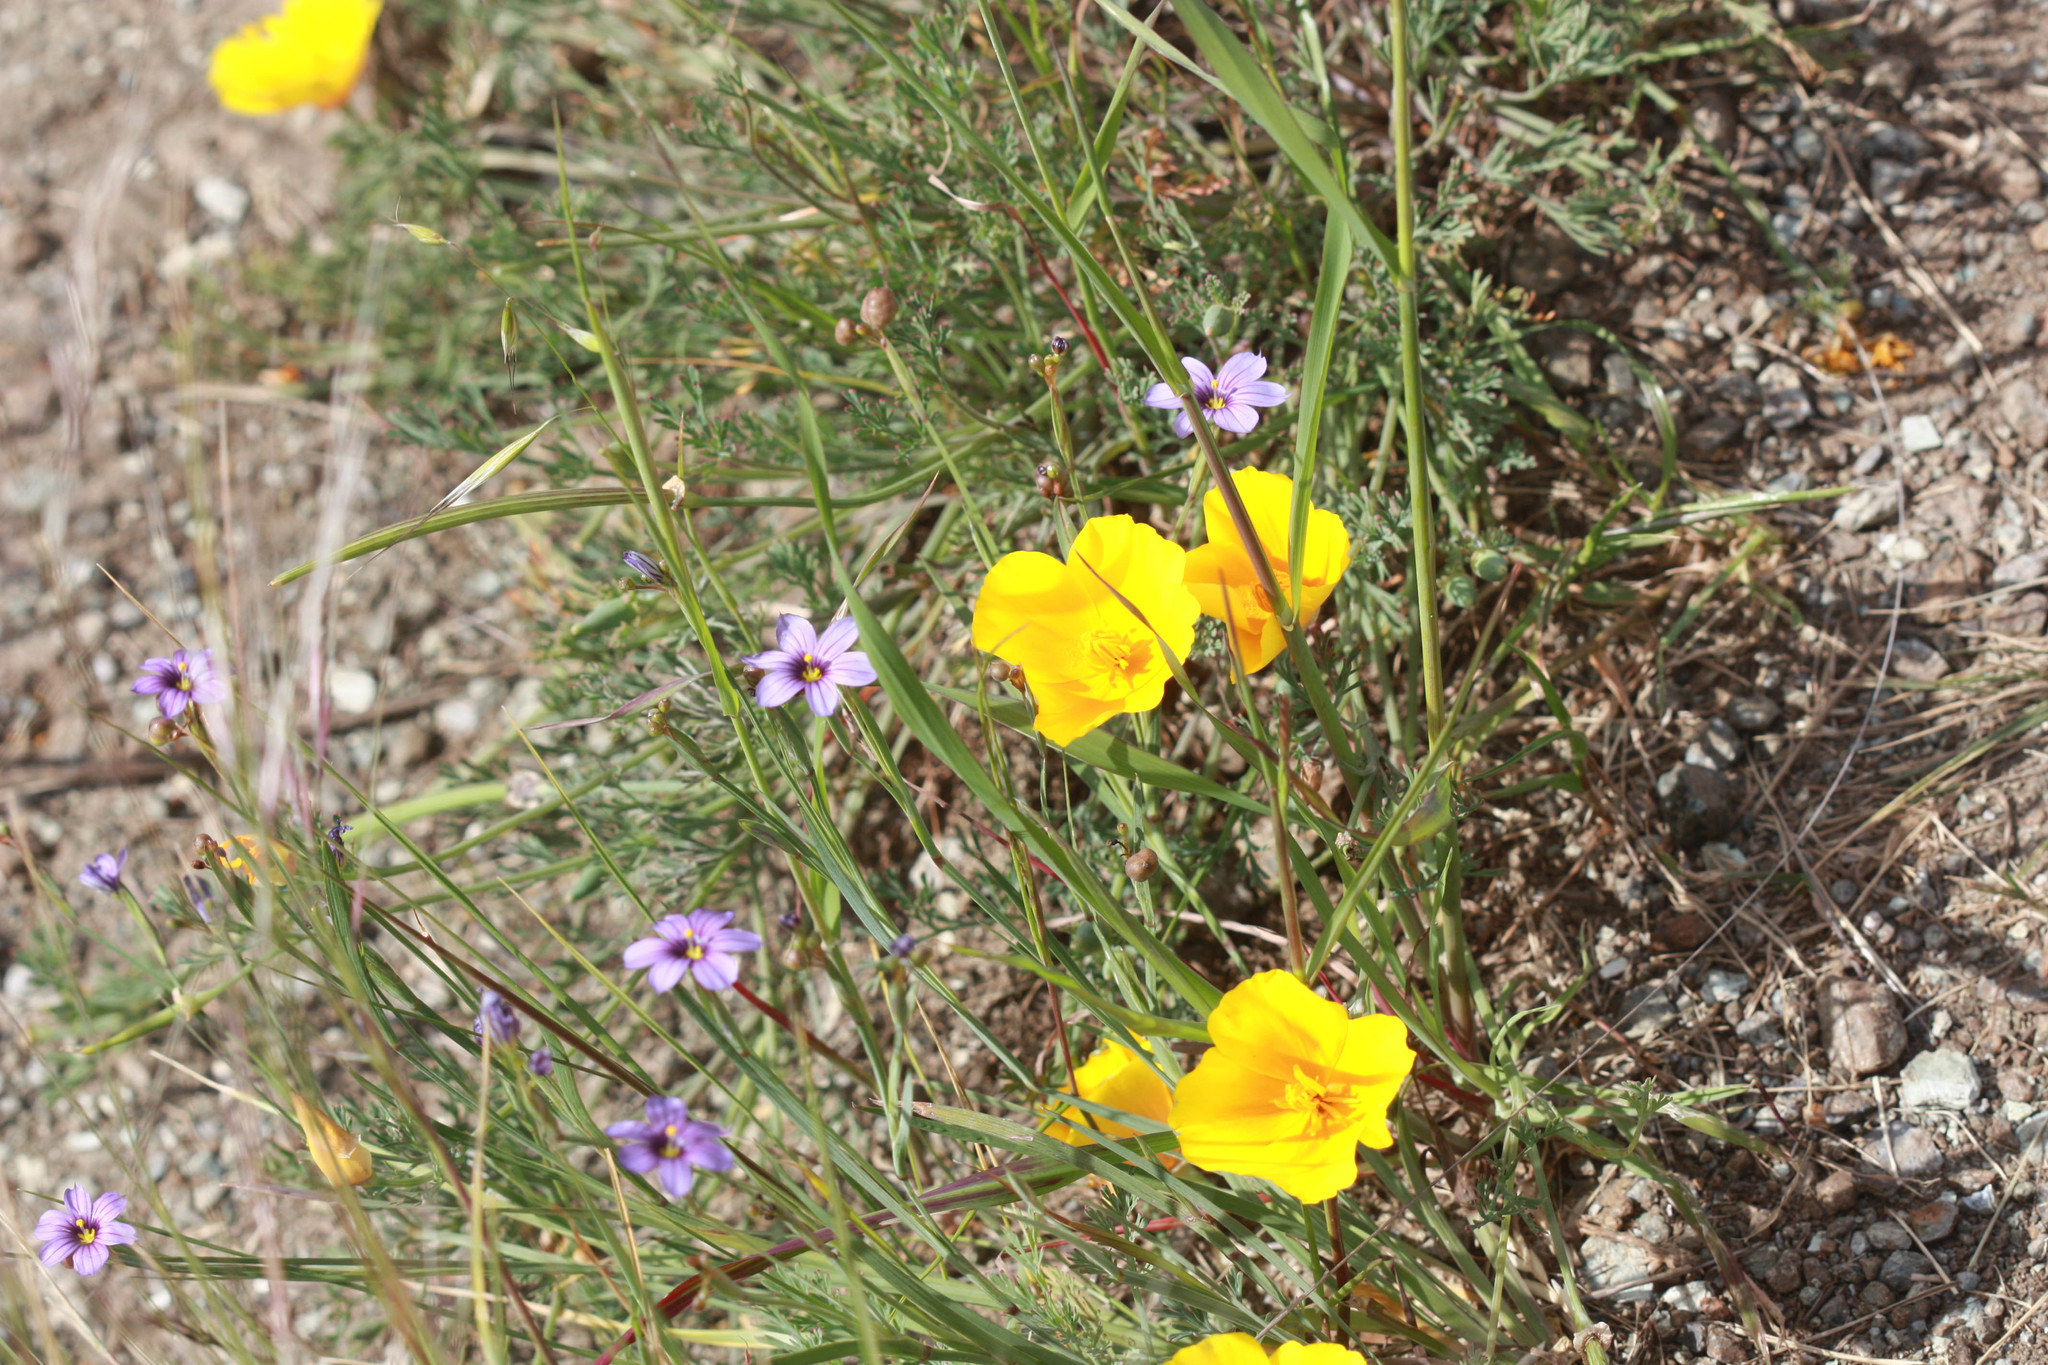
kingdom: Plantae
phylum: Tracheophyta
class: Magnoliopsida
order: Ranunculales
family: Papaveraceae
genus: Eschscholzia
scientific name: Eschscholzia californica
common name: California poppy
